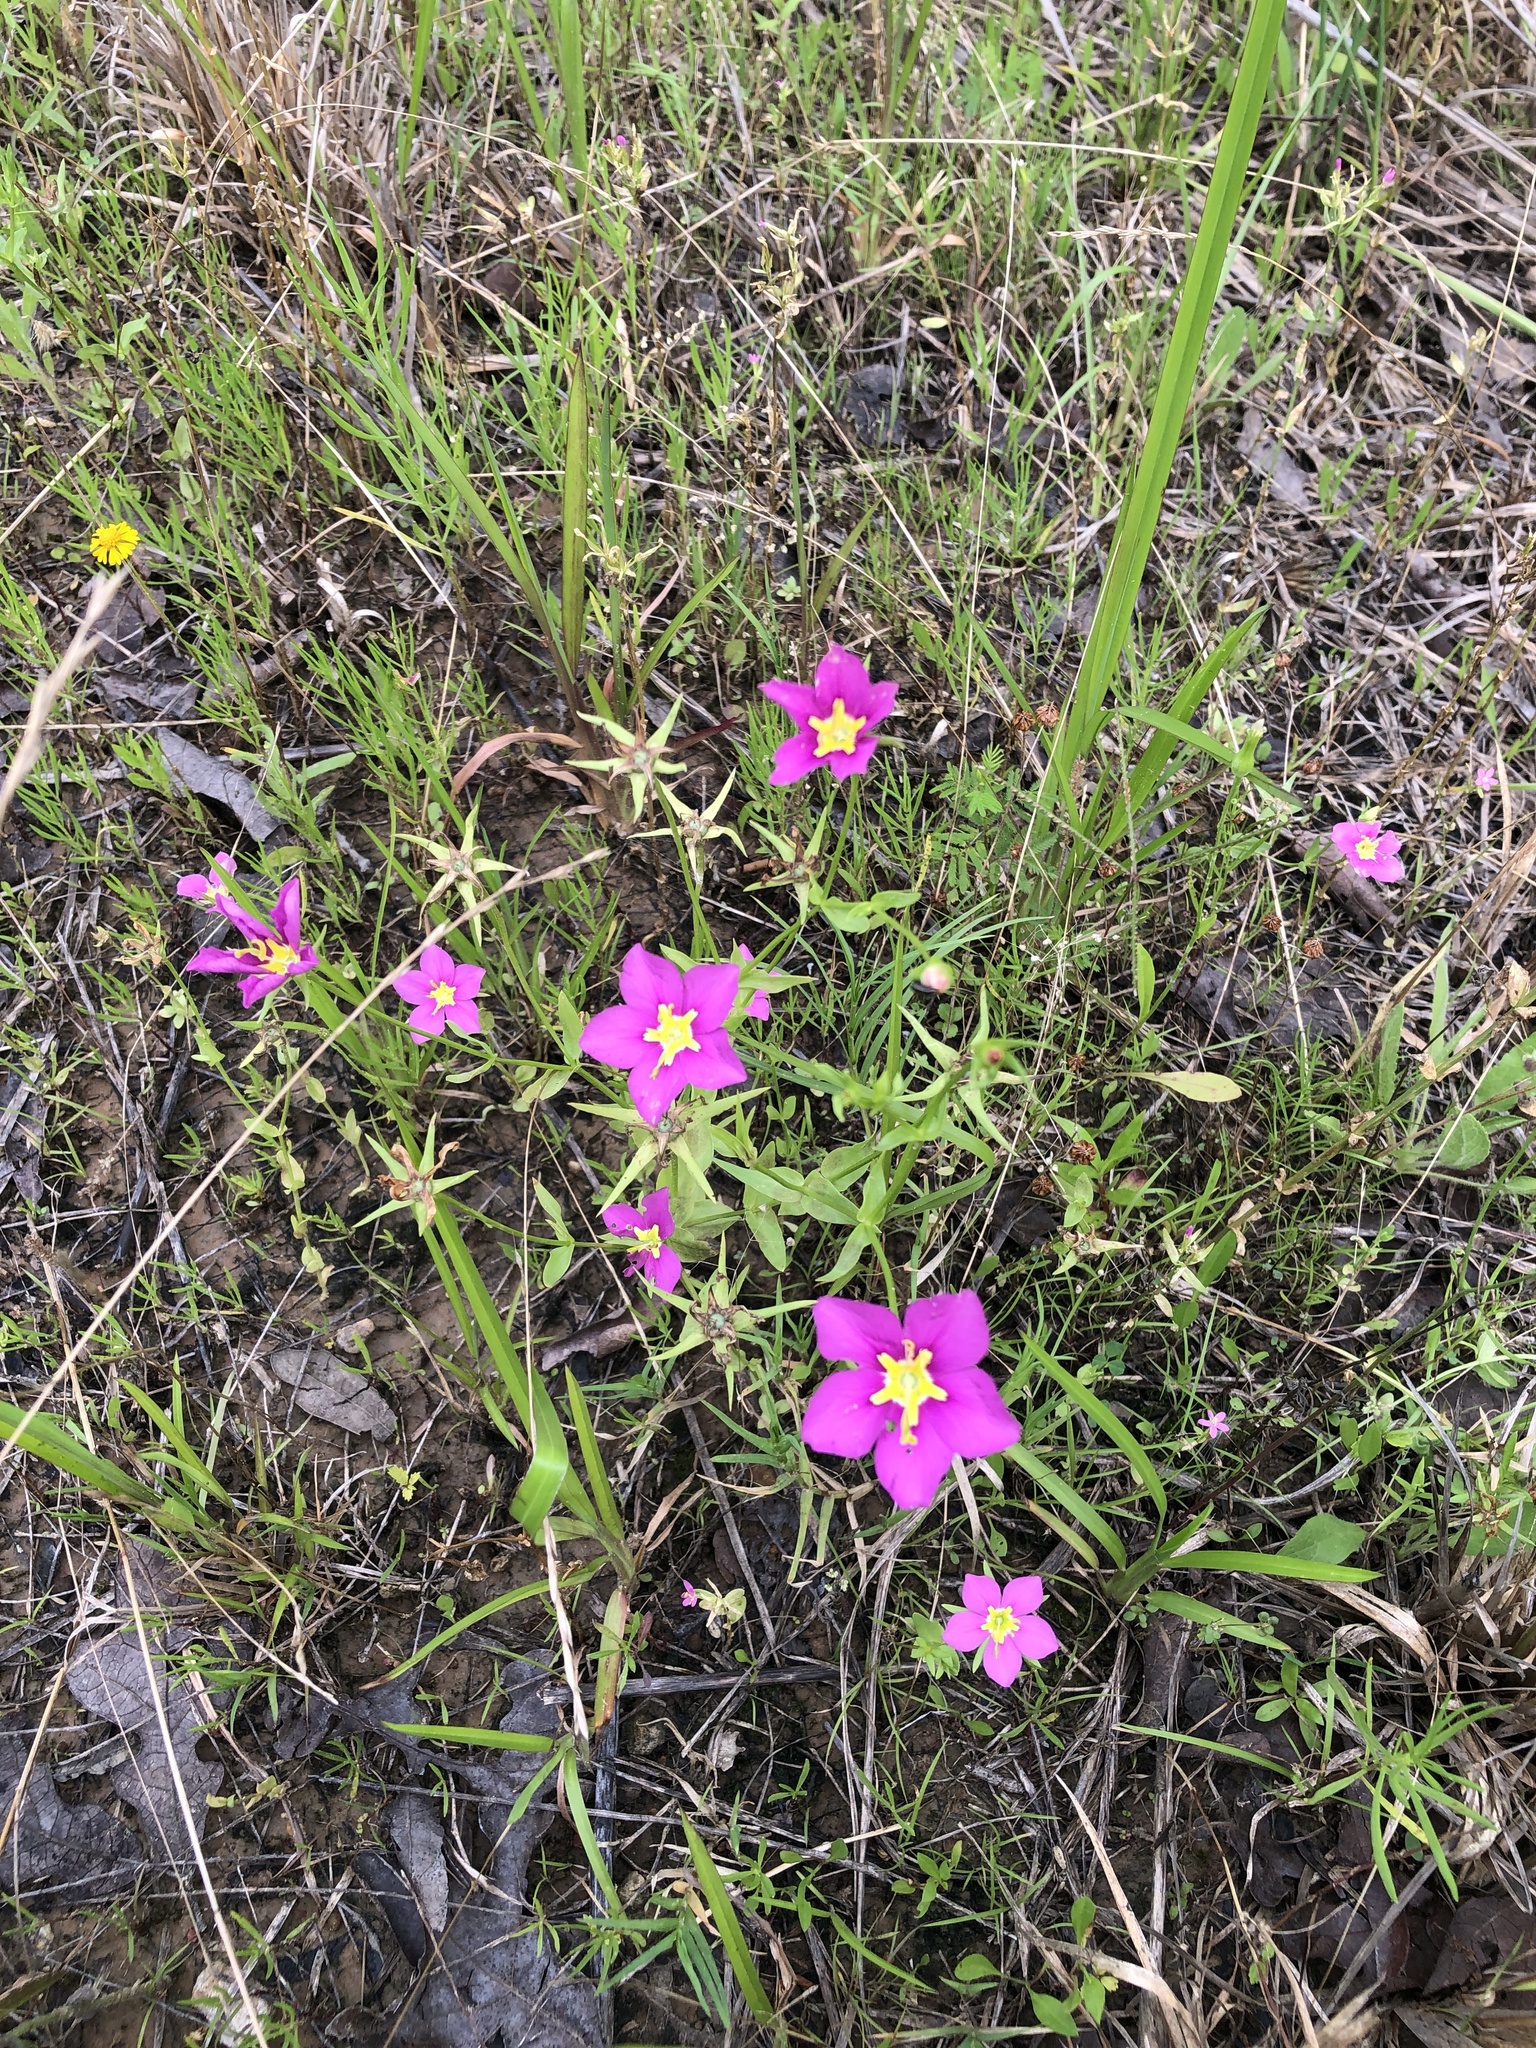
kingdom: Plantae
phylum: Tracheophyta
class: Magnoliopsida
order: Gentianales
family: Gentianaceae
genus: Sabatia
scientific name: Sabatia campestris
